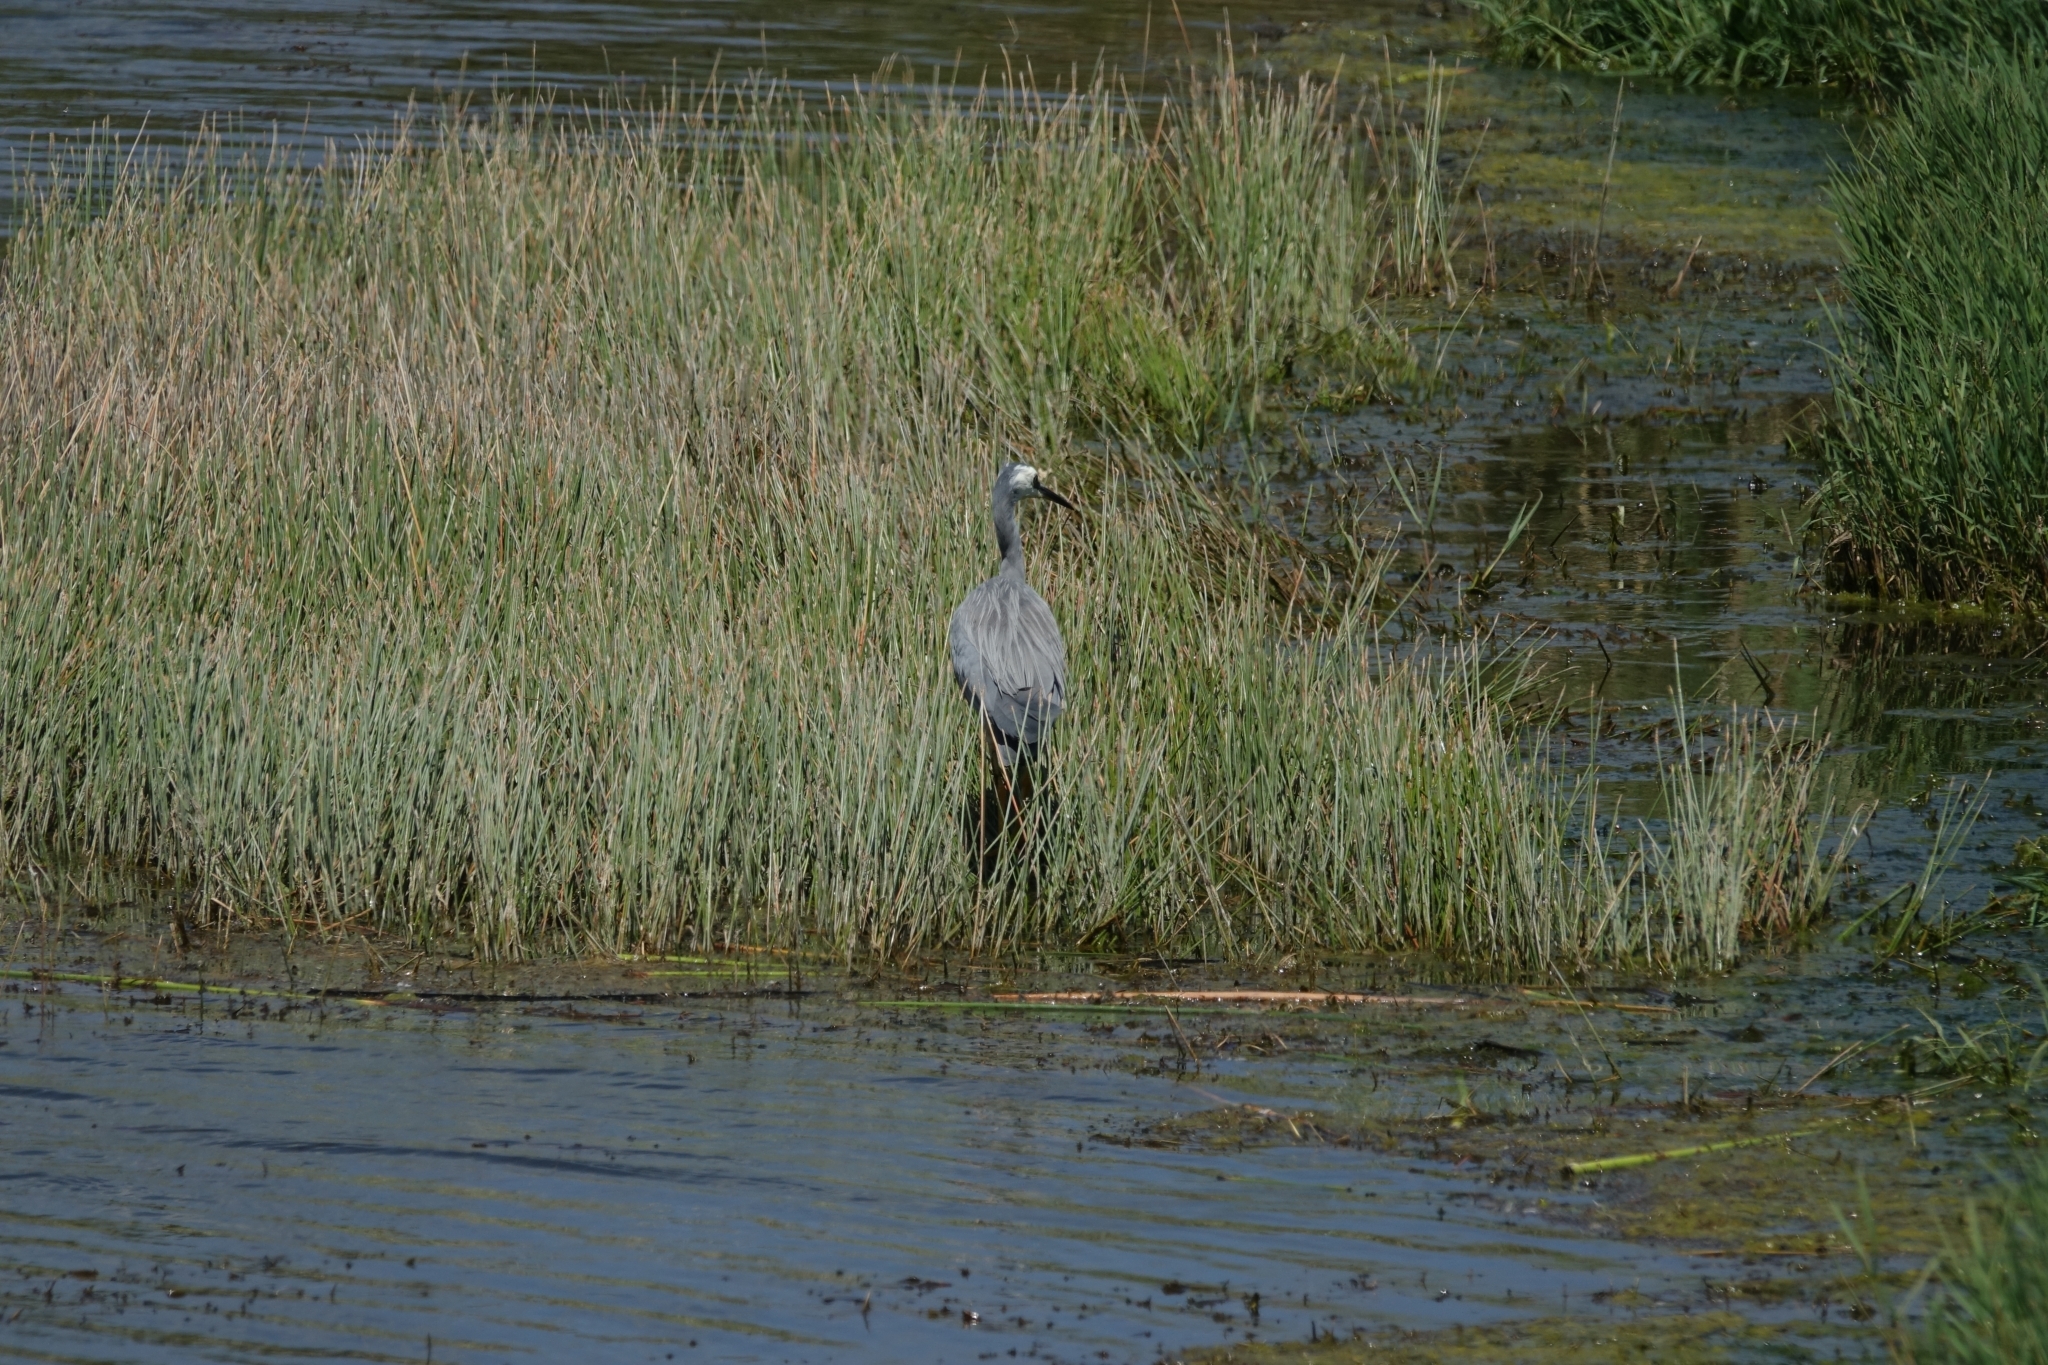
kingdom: Animalia
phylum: Chordata
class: Aves
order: Pelecaniformes
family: Ardeidae
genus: Egretta
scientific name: Egretta novaehollandiae
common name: White-faced heron
